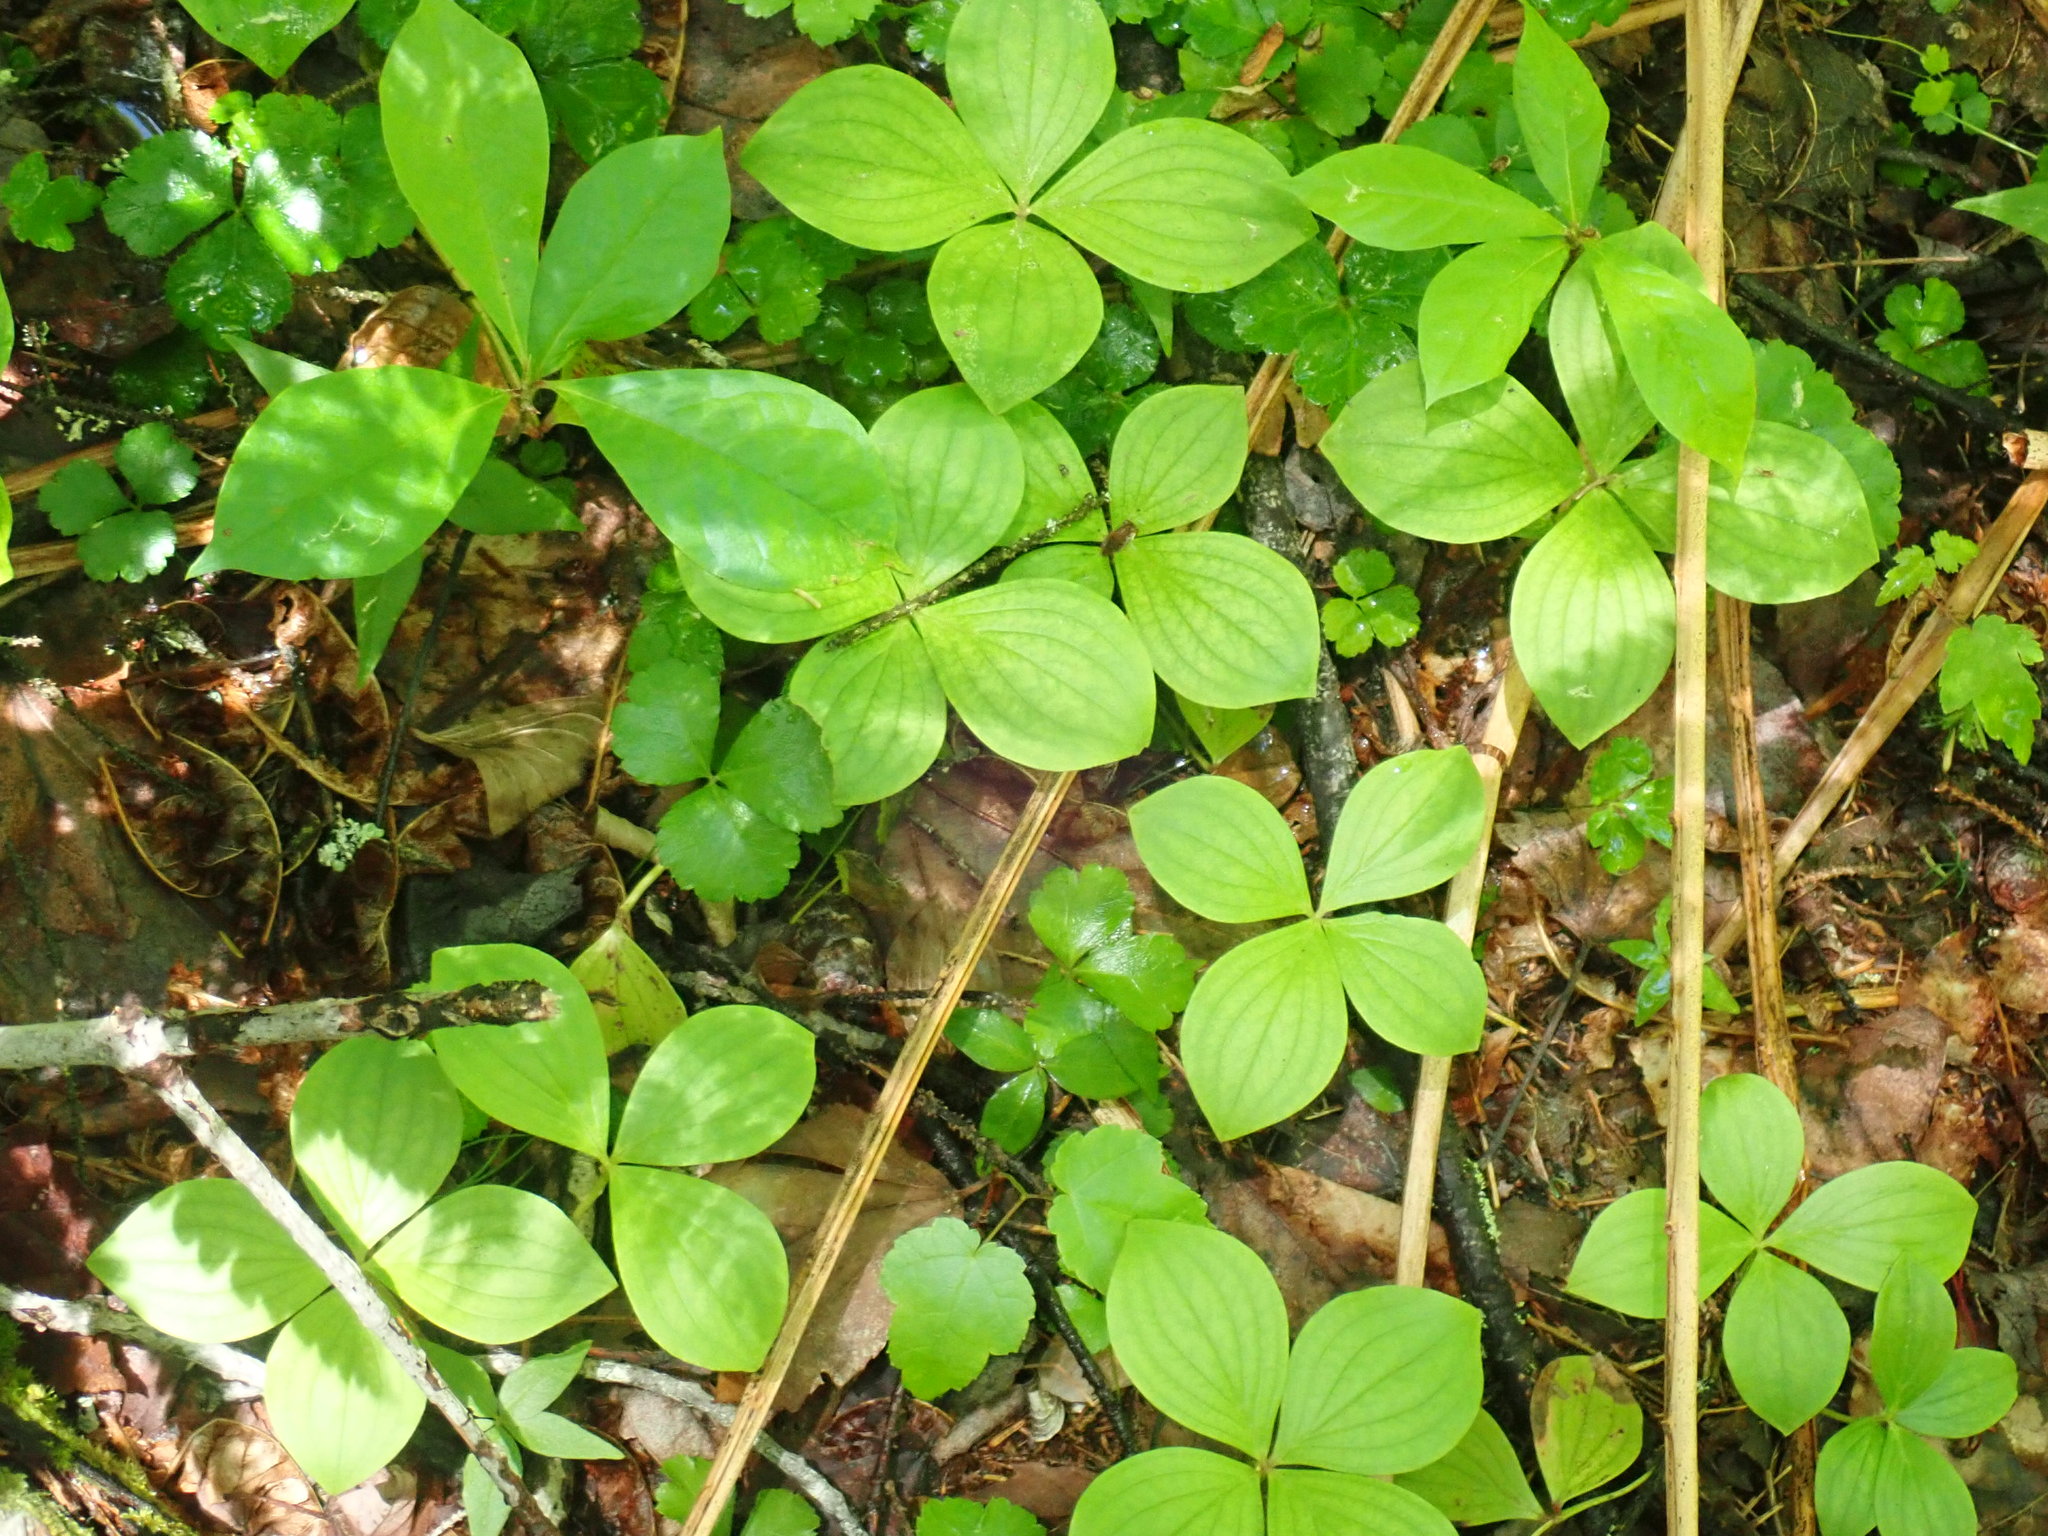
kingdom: Plantae
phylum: Tracheophyta
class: Magnoliopsida
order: Cornales
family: Cornaceae
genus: Cornus
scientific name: Cornus canadensis
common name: Creeping dogwood
